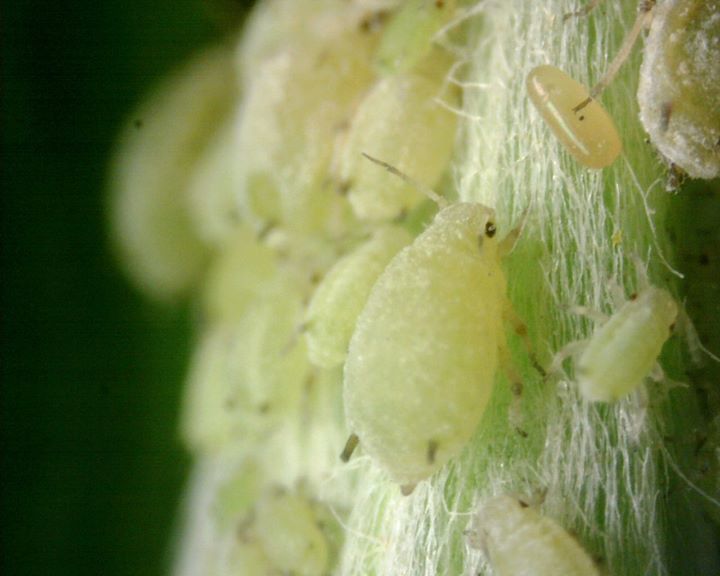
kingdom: Animalia
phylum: Arthropoda
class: Insecta
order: Hemiptera
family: Aphididae
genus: Aphis
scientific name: Aphis kurosawai
